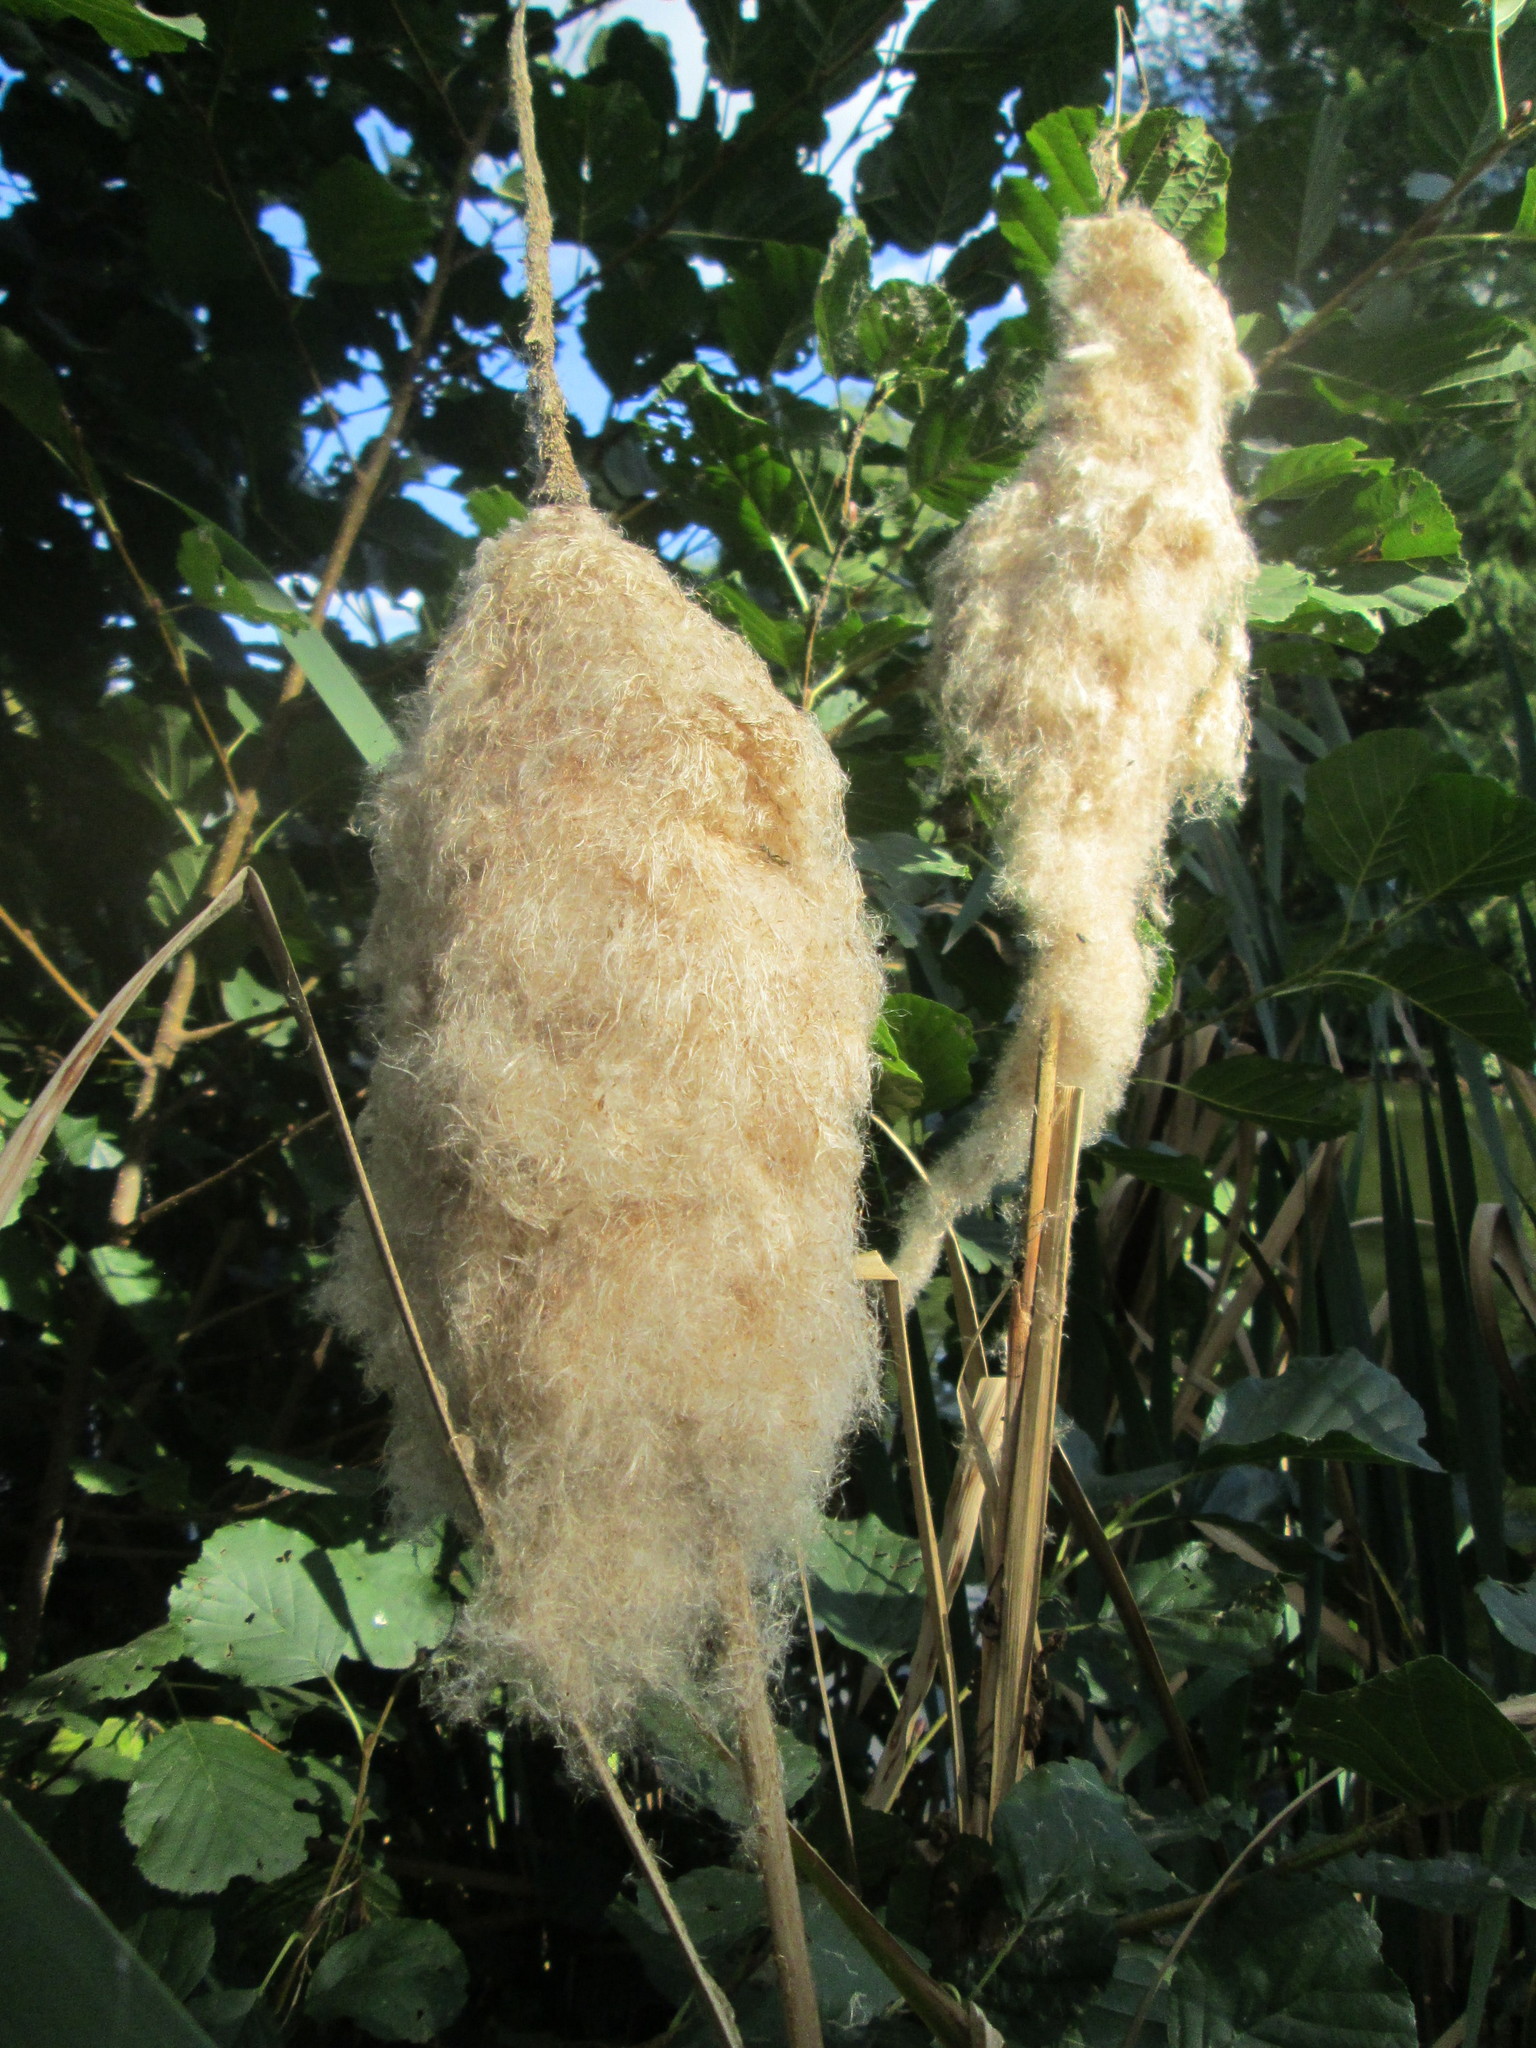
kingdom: Plantae
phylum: Tracheophyta
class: Liliopsida
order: Poales
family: Typhaceae
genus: Typha
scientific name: Typha latifolia
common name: Broadleaf cattail
